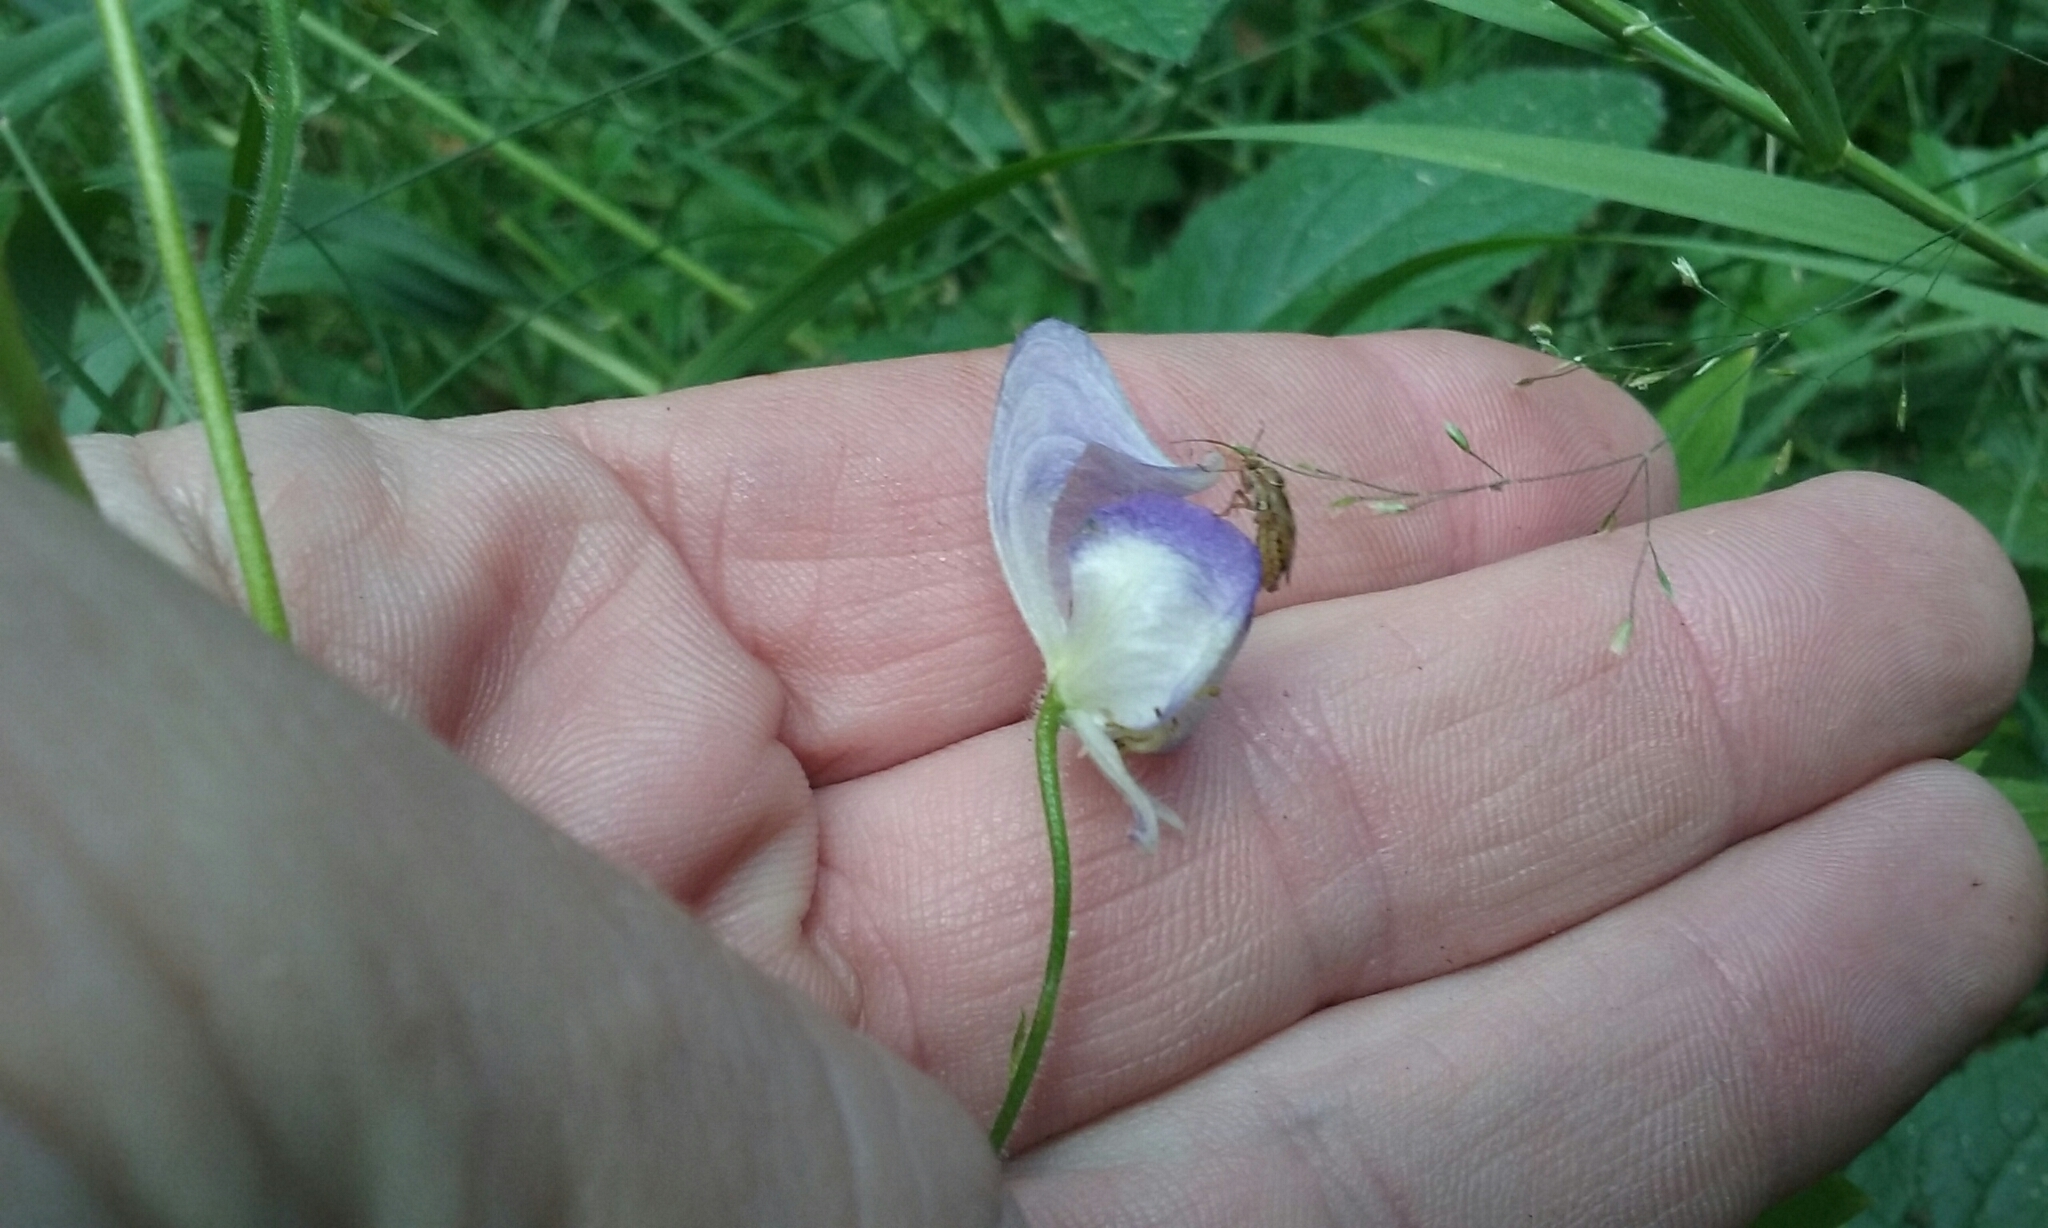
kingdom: Plantae
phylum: Tracheophyta
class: Magnoliopsida
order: Ranunculales
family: Ranunculaceae
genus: Aconitum
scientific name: Aconitum columbianum
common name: Columbia aconite
